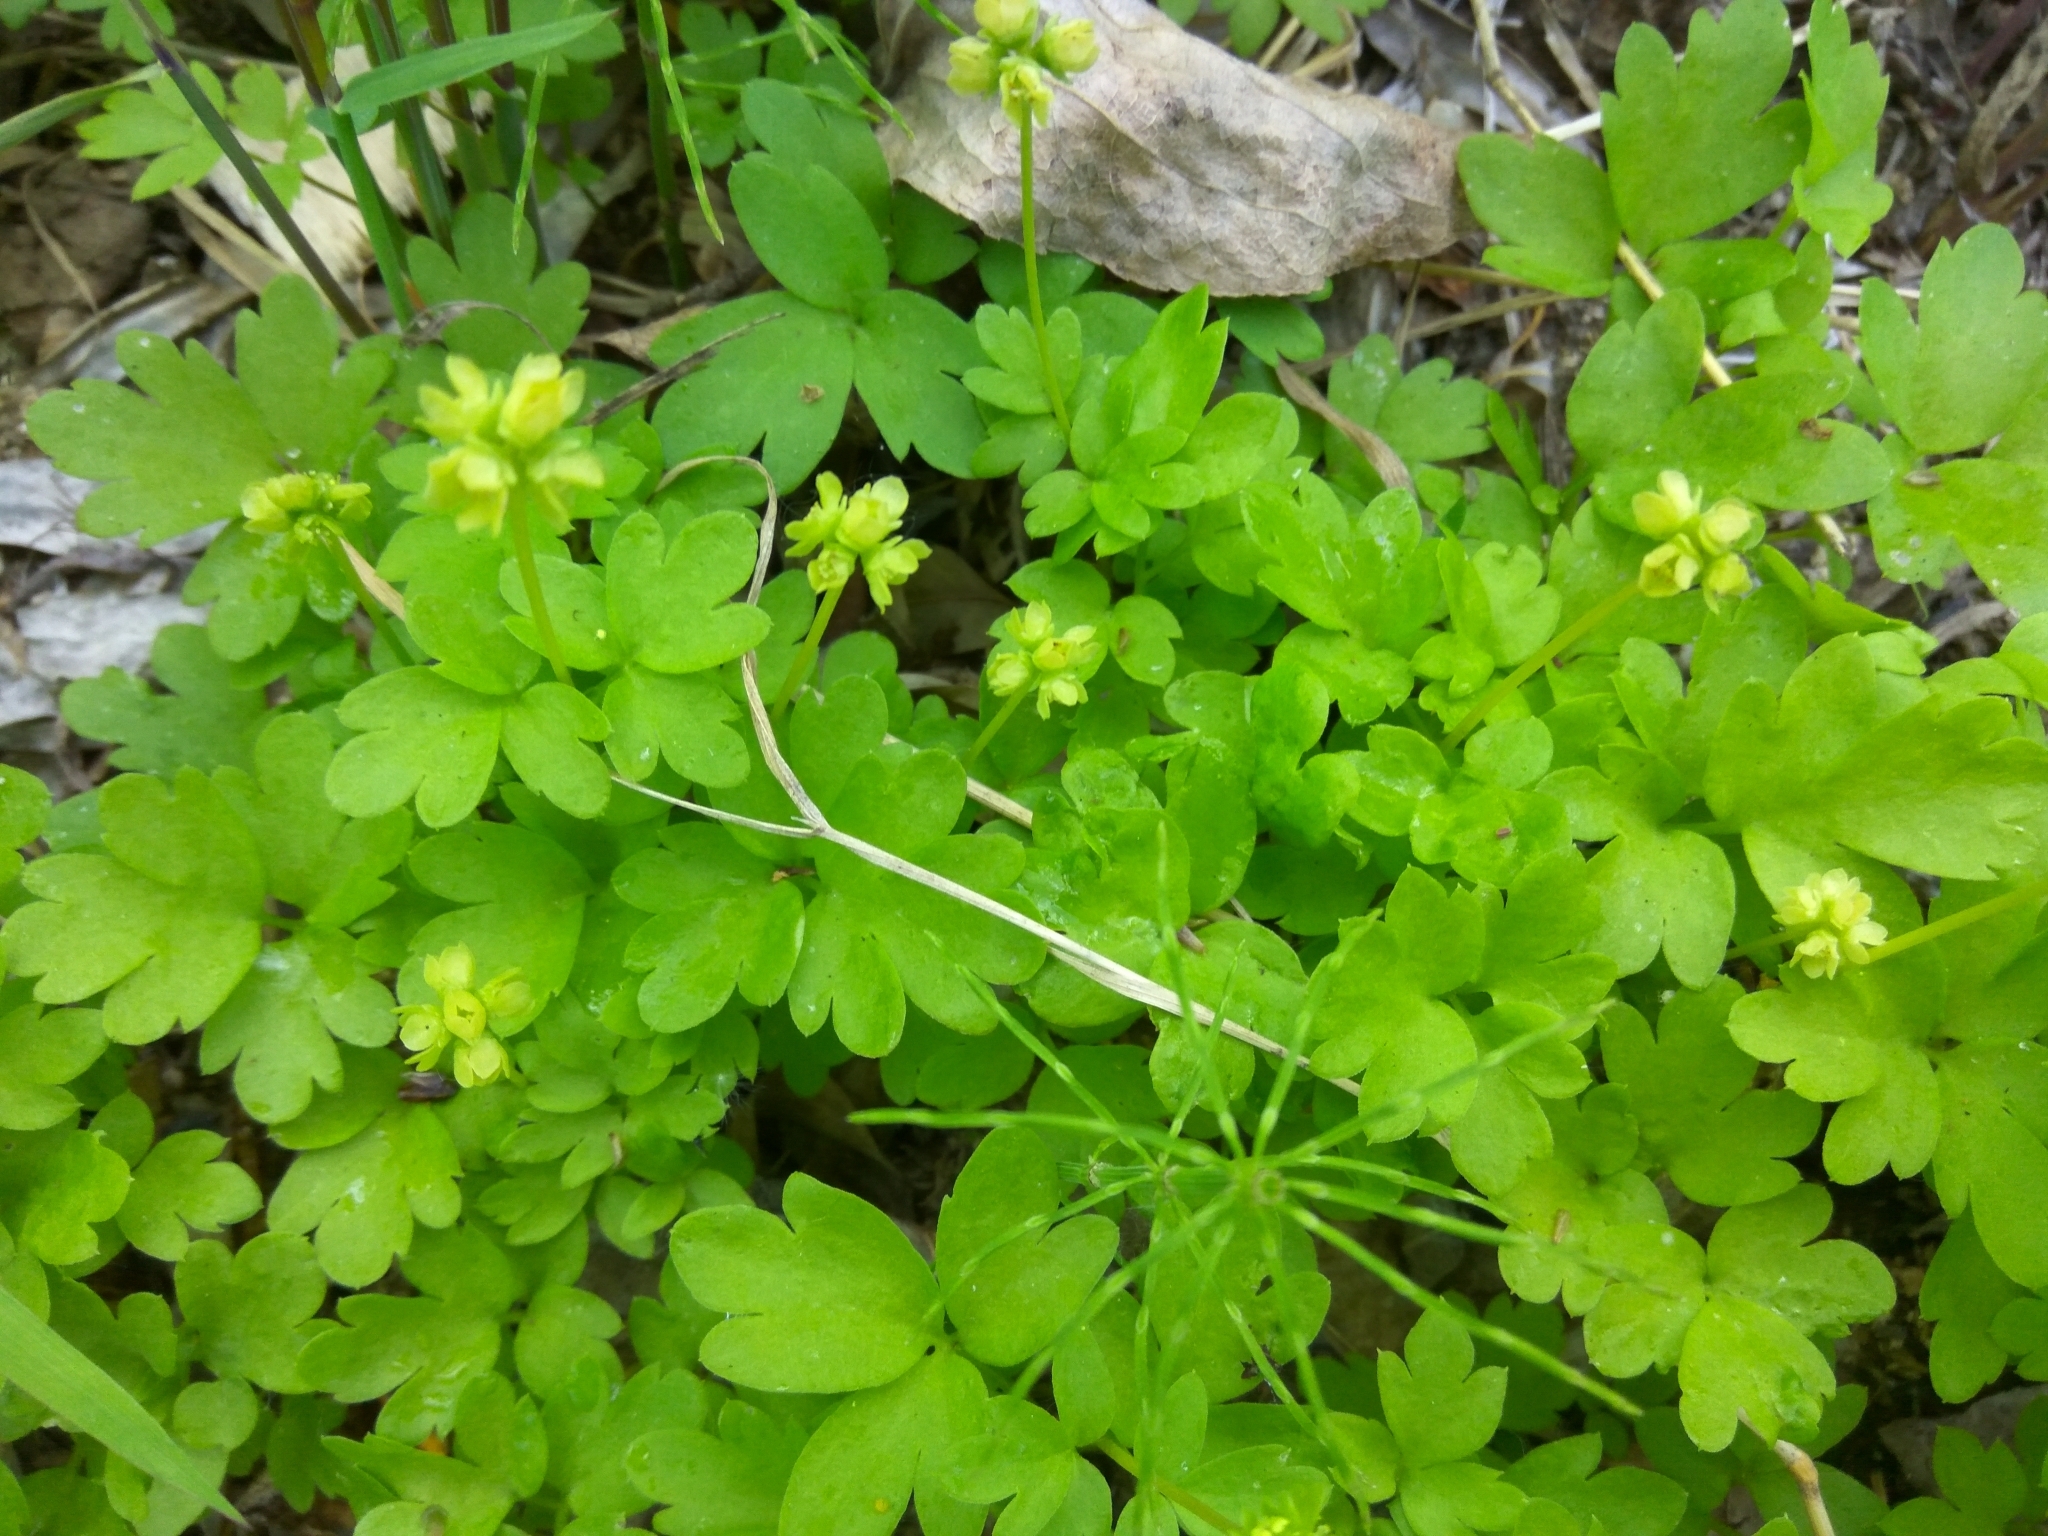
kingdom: Plantae
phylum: Tracheophyta
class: Magnoliopsida
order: Dipsacales
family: Viburnaceae
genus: Adoxa
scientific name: Adoxa moschatellina
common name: Moschatel
